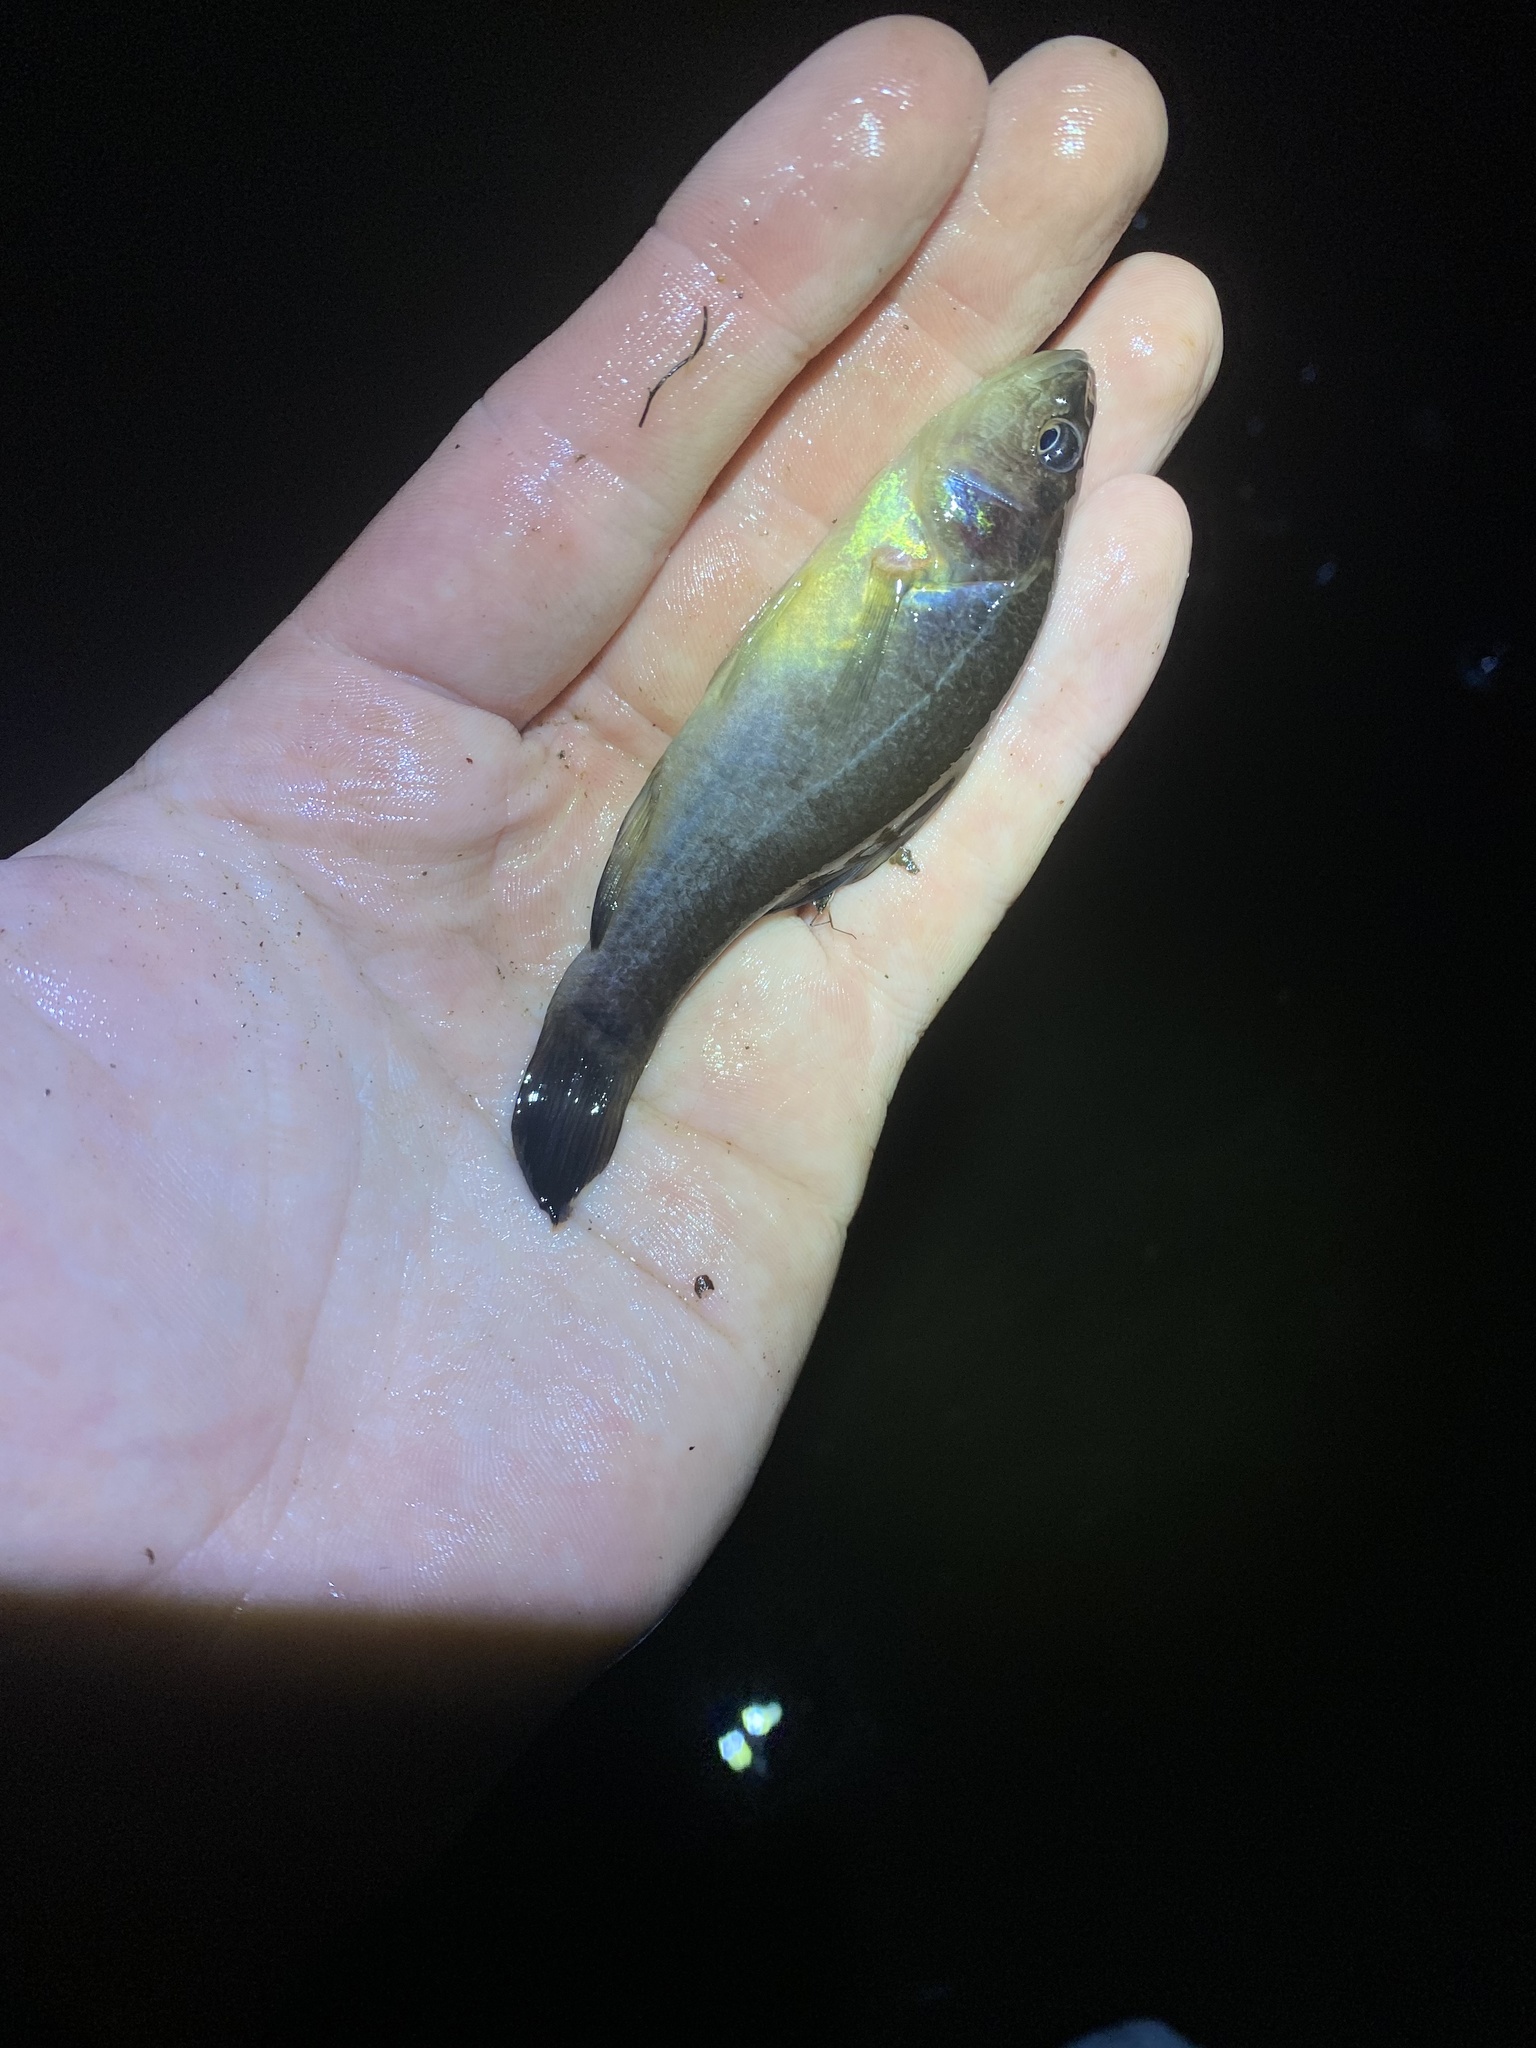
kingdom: Animalia
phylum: Chordata
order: Percopsiformes
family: Aphredoderidae
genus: Aphredoderus
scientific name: Aphredoderus
